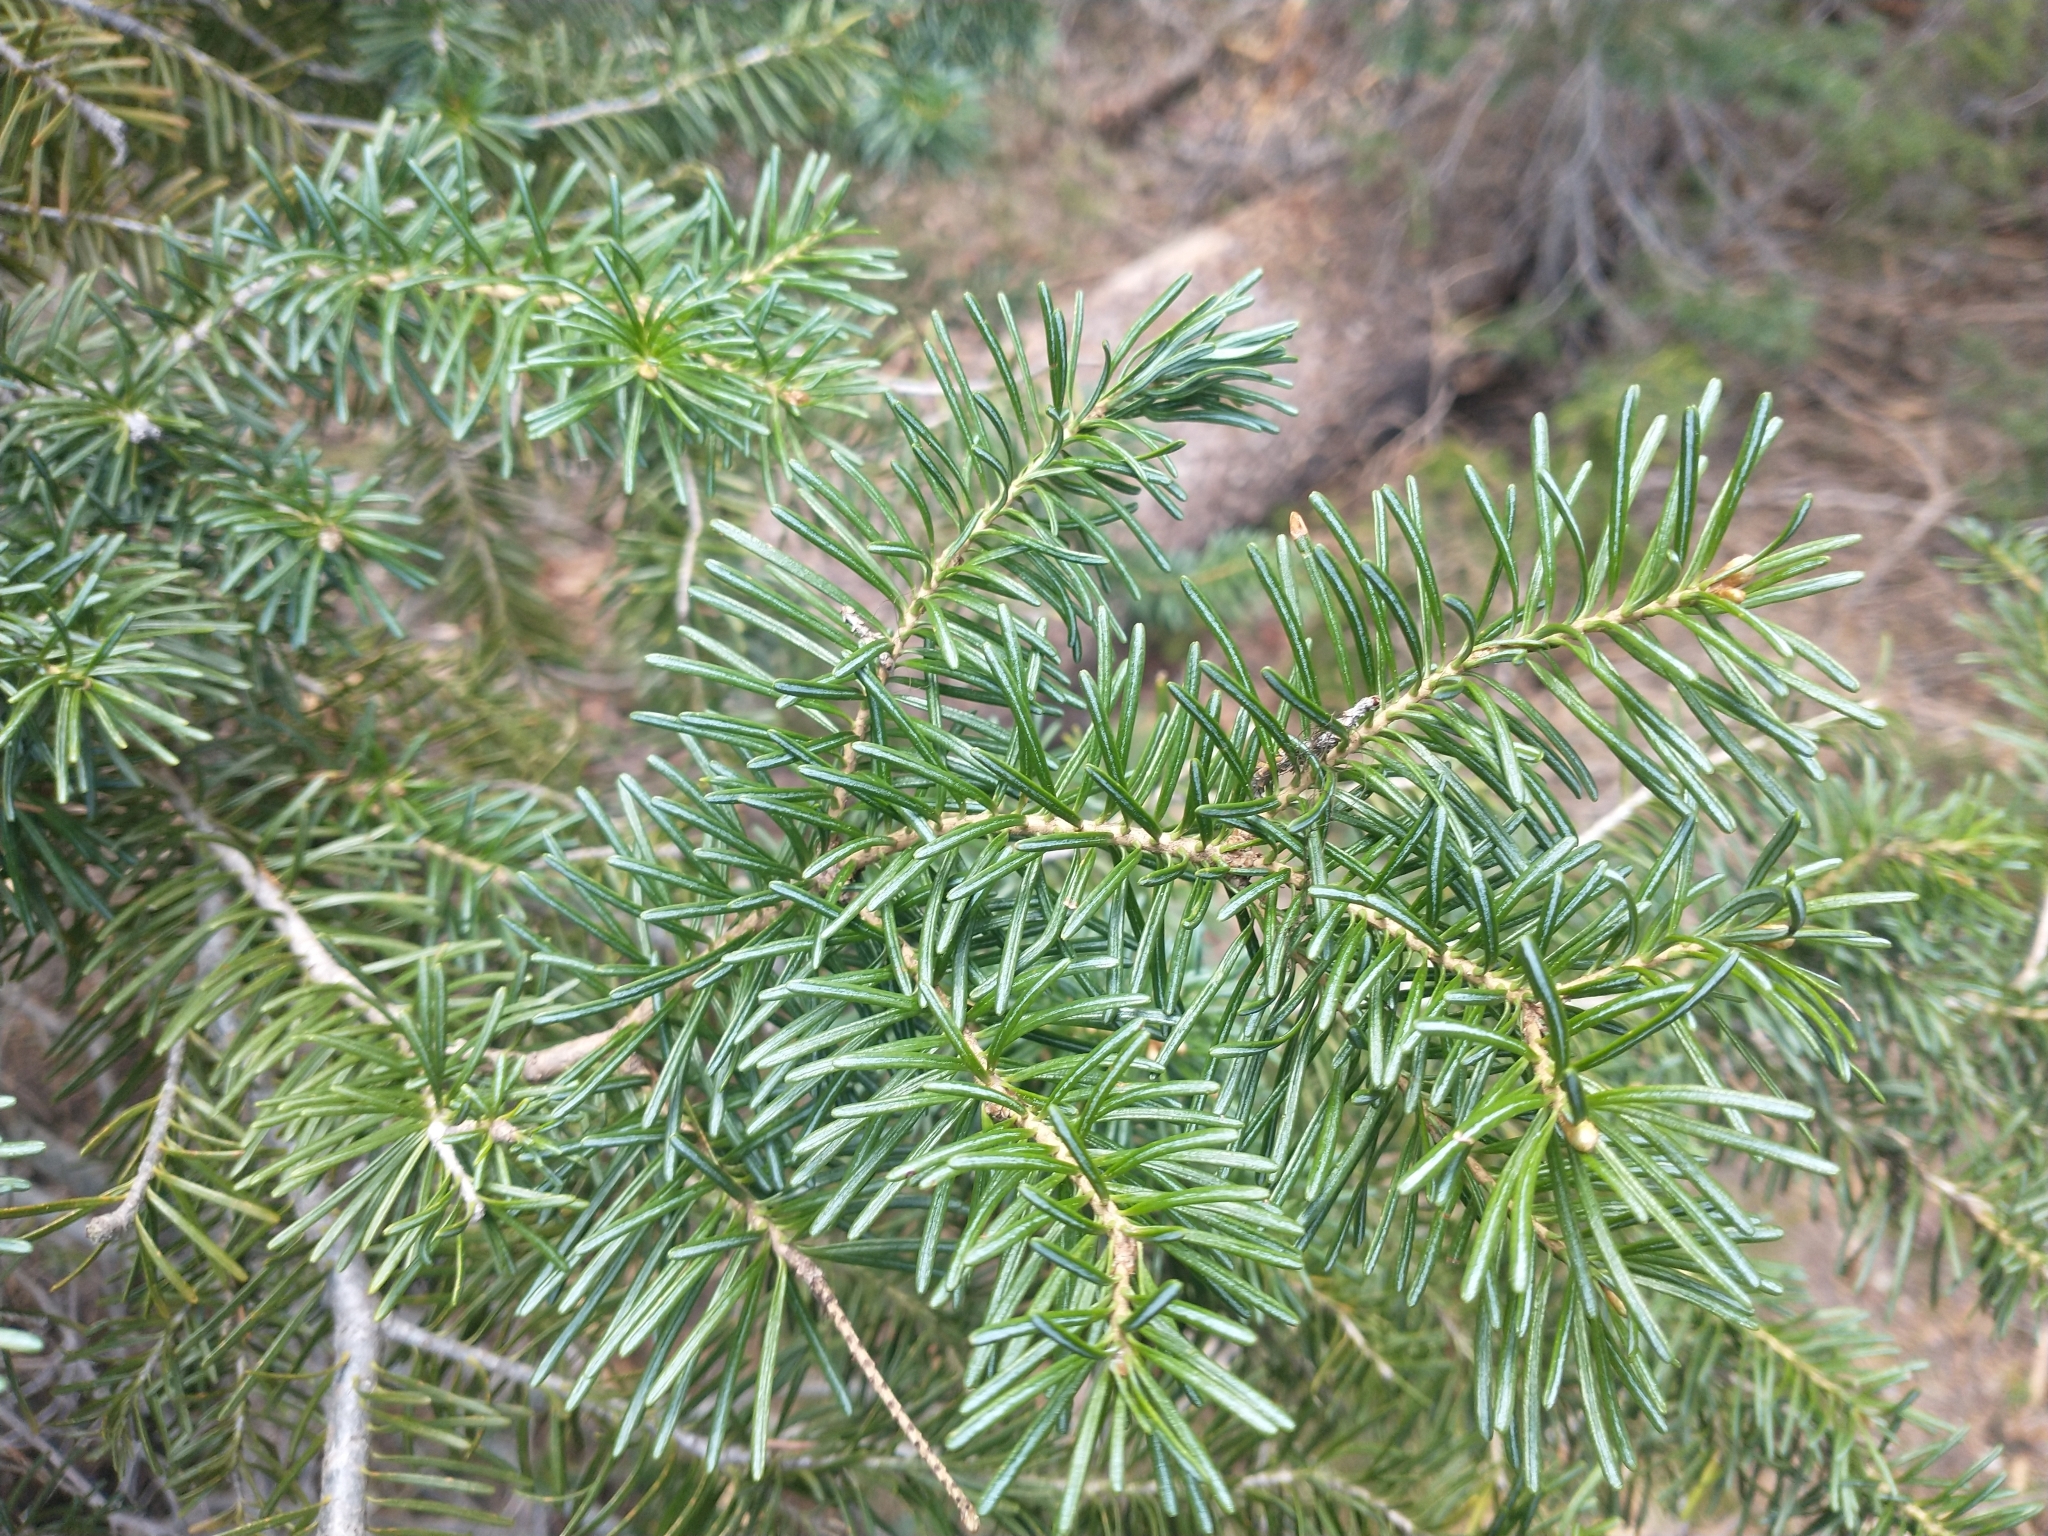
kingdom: Plantae
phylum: Tracheophyta
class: Pinopsida
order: Pinales
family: Pinaceae
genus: Abies
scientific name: Abies lasiocarpa
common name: Subalpine fir
